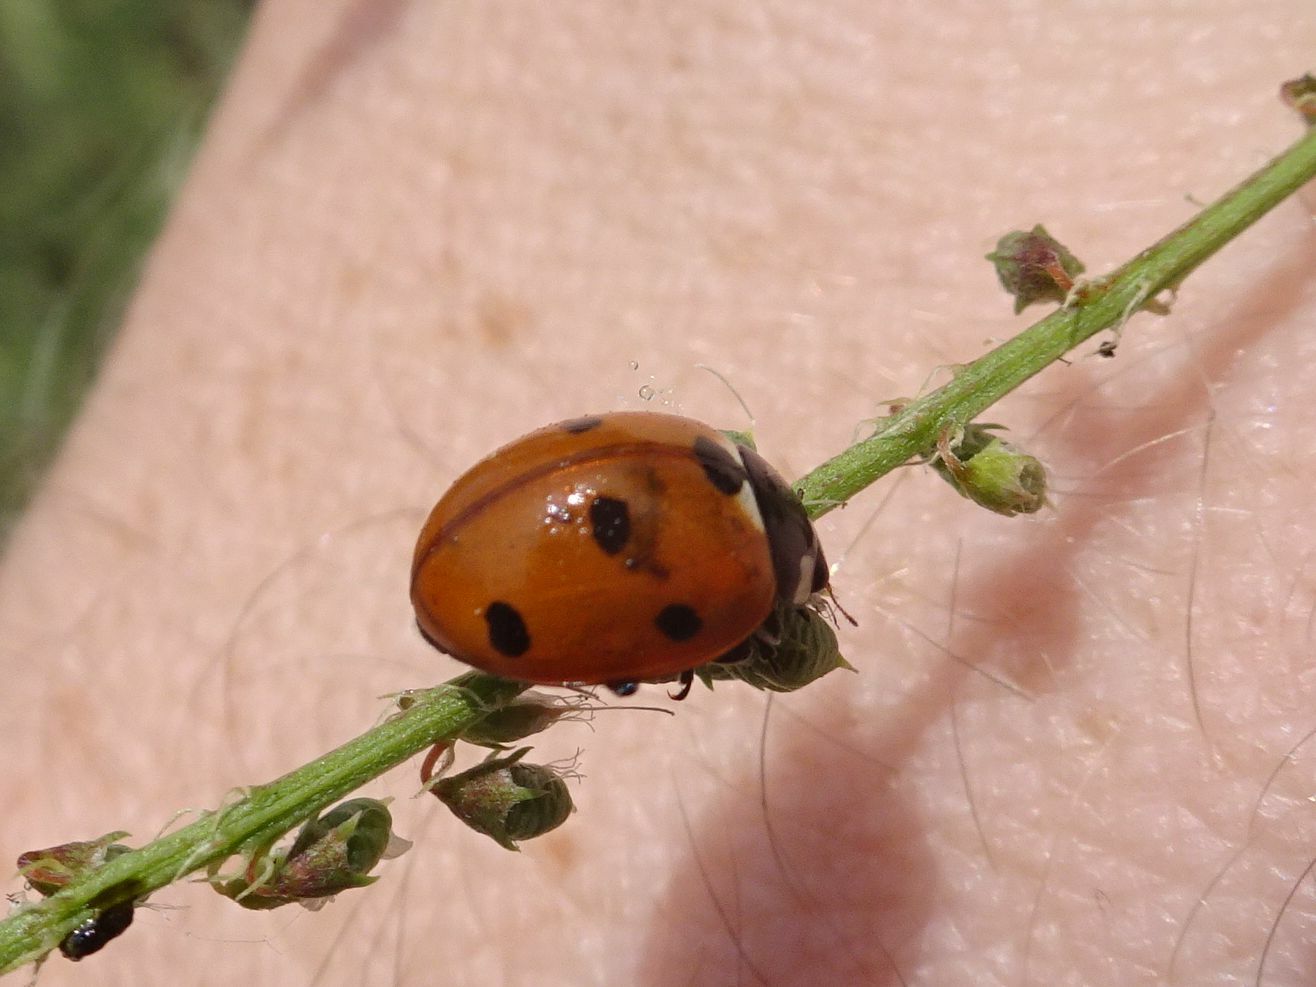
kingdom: Animalia
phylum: Arthropoda
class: Insecta
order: Coleoptera
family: Coccinellidae
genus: Coccinella
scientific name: Coccinella septempunctata
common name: Sevenspotted lady beetle
